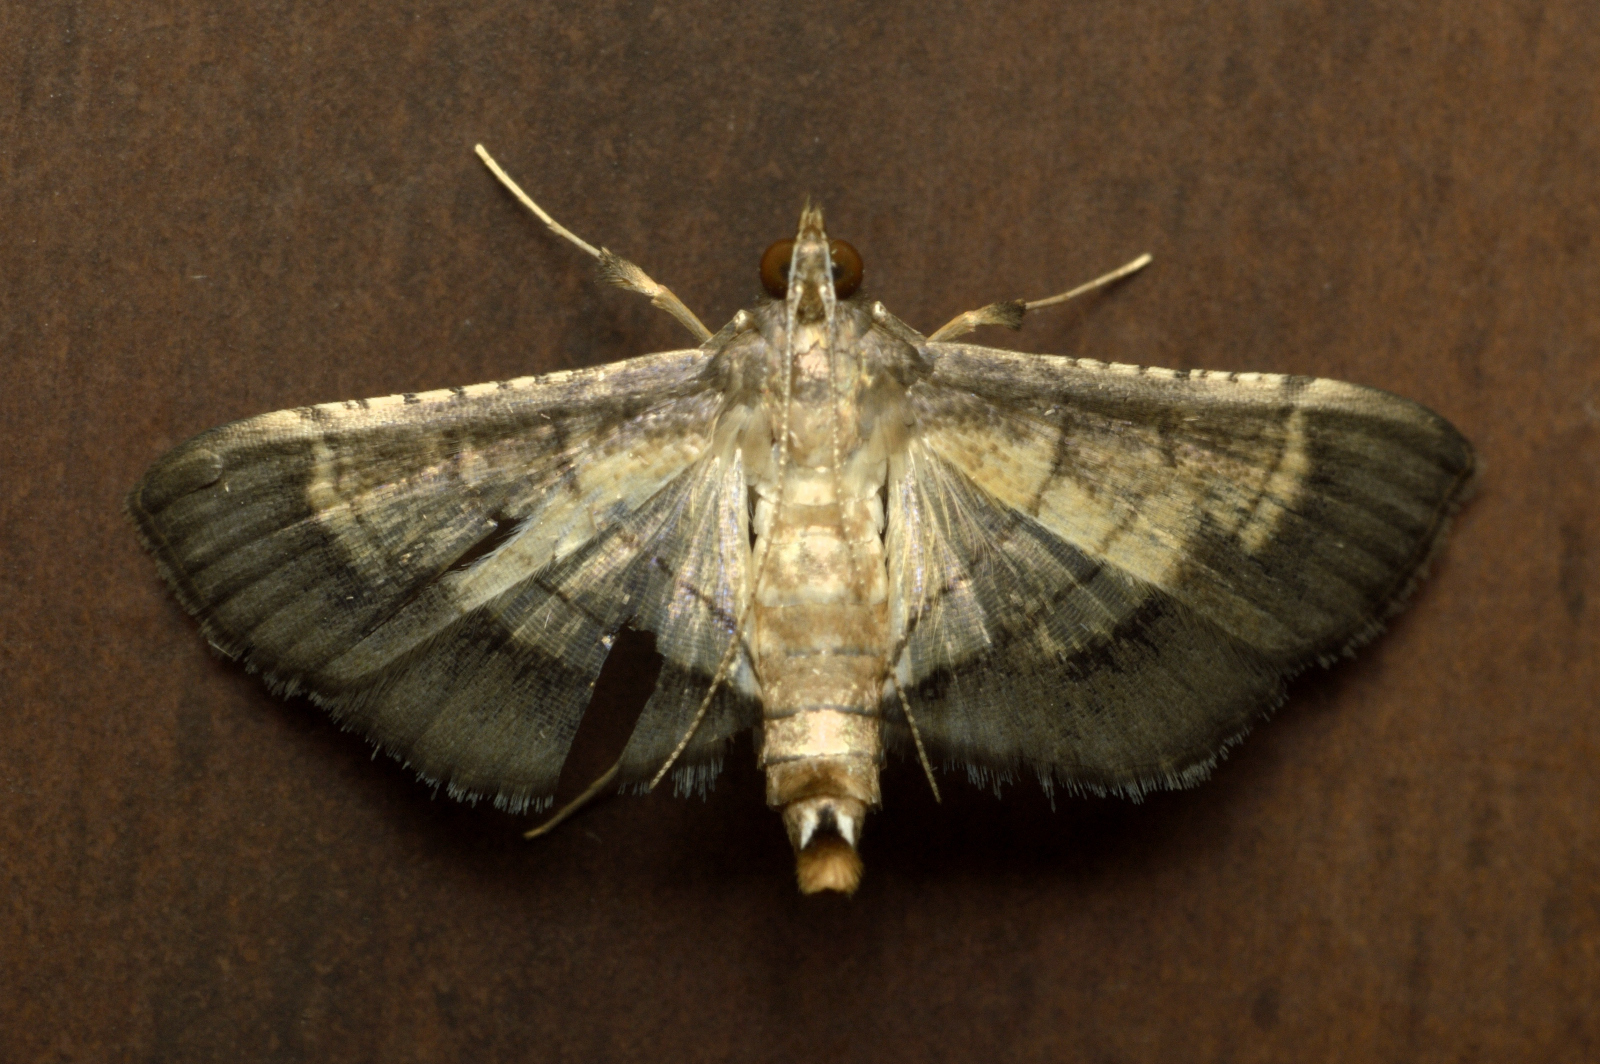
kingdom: Animalia
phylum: Arthropoda
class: Insecta
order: Lepidoptera
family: Crambidae
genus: Cnaphalocrocis
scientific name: Cnaphalocrocis trebiusalis
